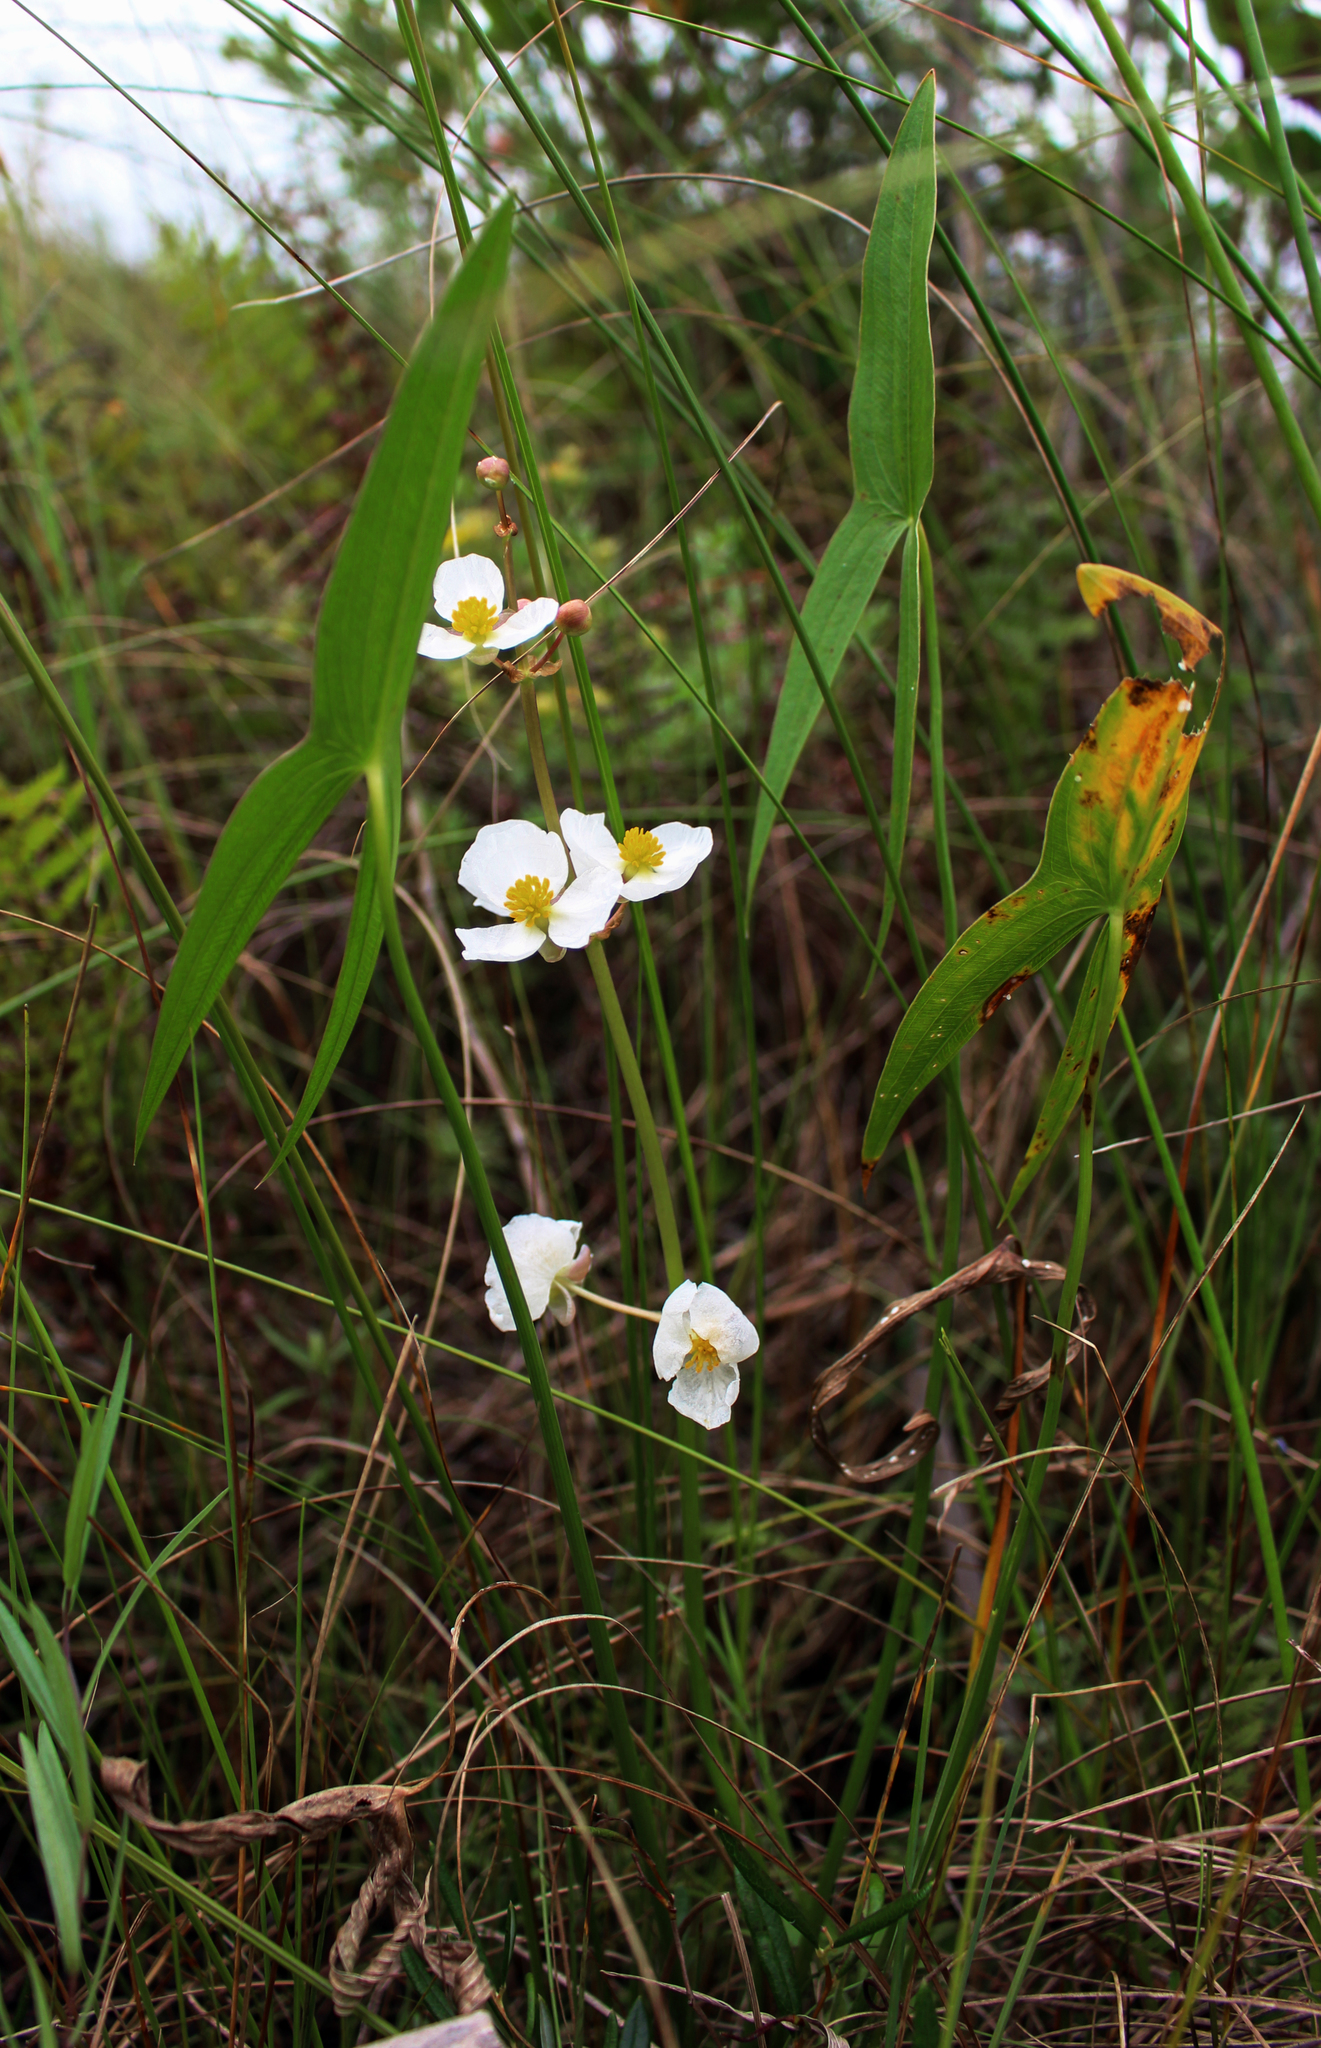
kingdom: Plantae
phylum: Tracheophyta
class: Liliopsida
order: Alismatales
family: Alismataceae
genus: Sagittaria
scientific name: Sagittaria latifolia
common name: Duck-potato
